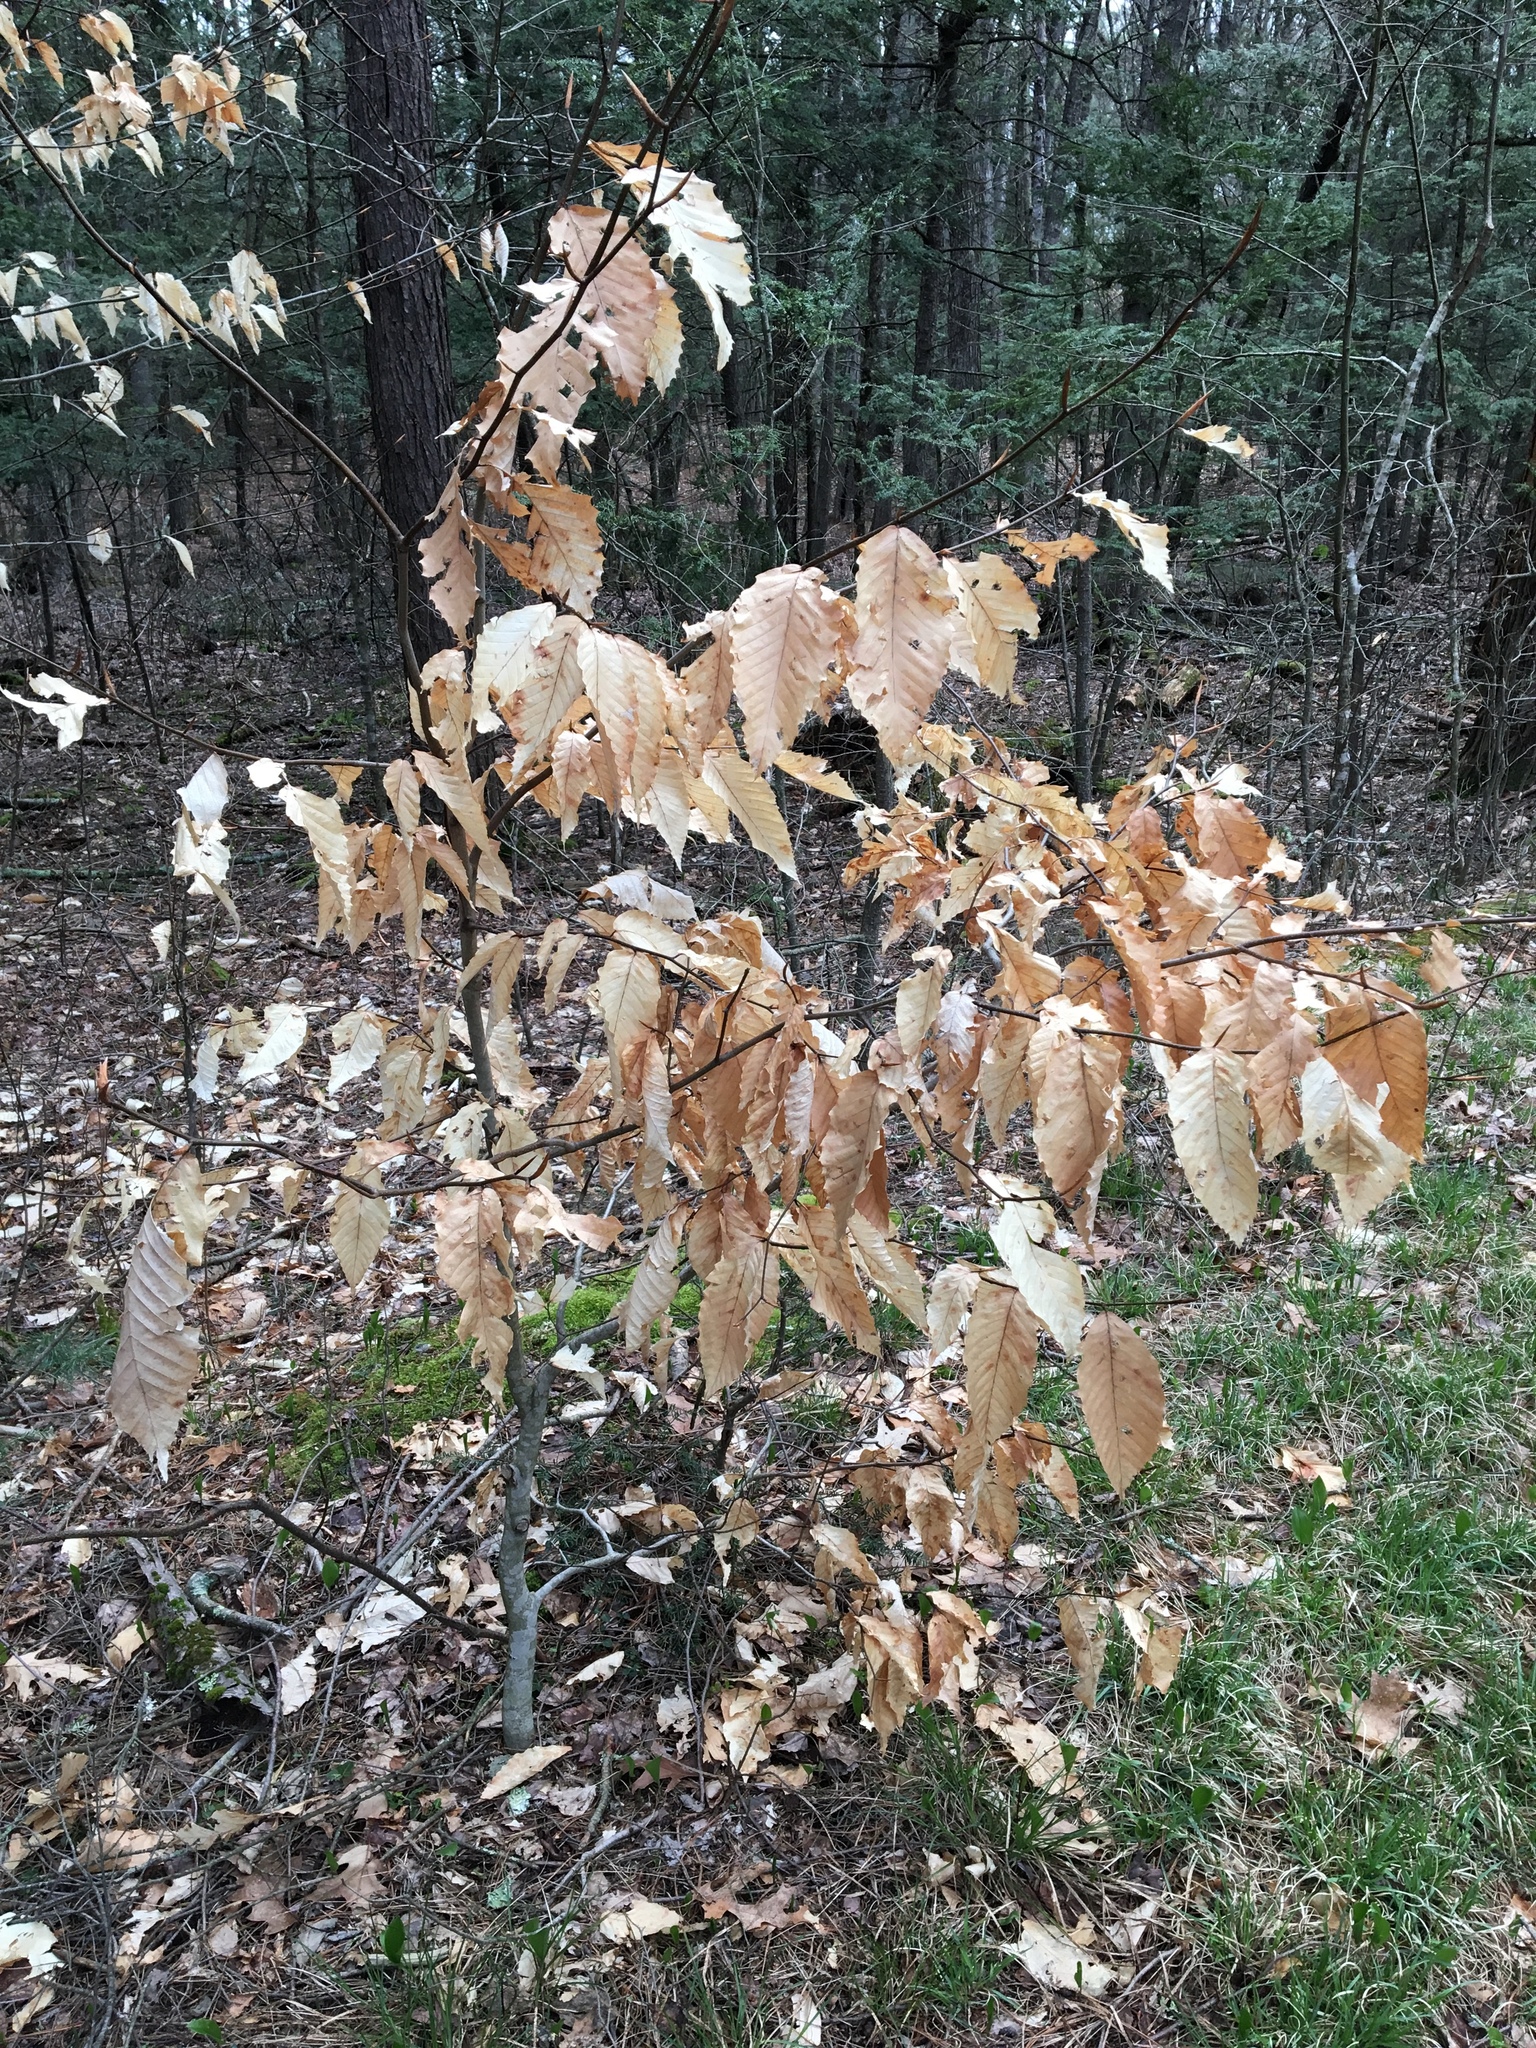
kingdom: Plantae
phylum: Tracheophyta
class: Magnoliopsida
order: Fagales
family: Fagaceae
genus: Fagus
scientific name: Fagus grandifolia
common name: American beech
